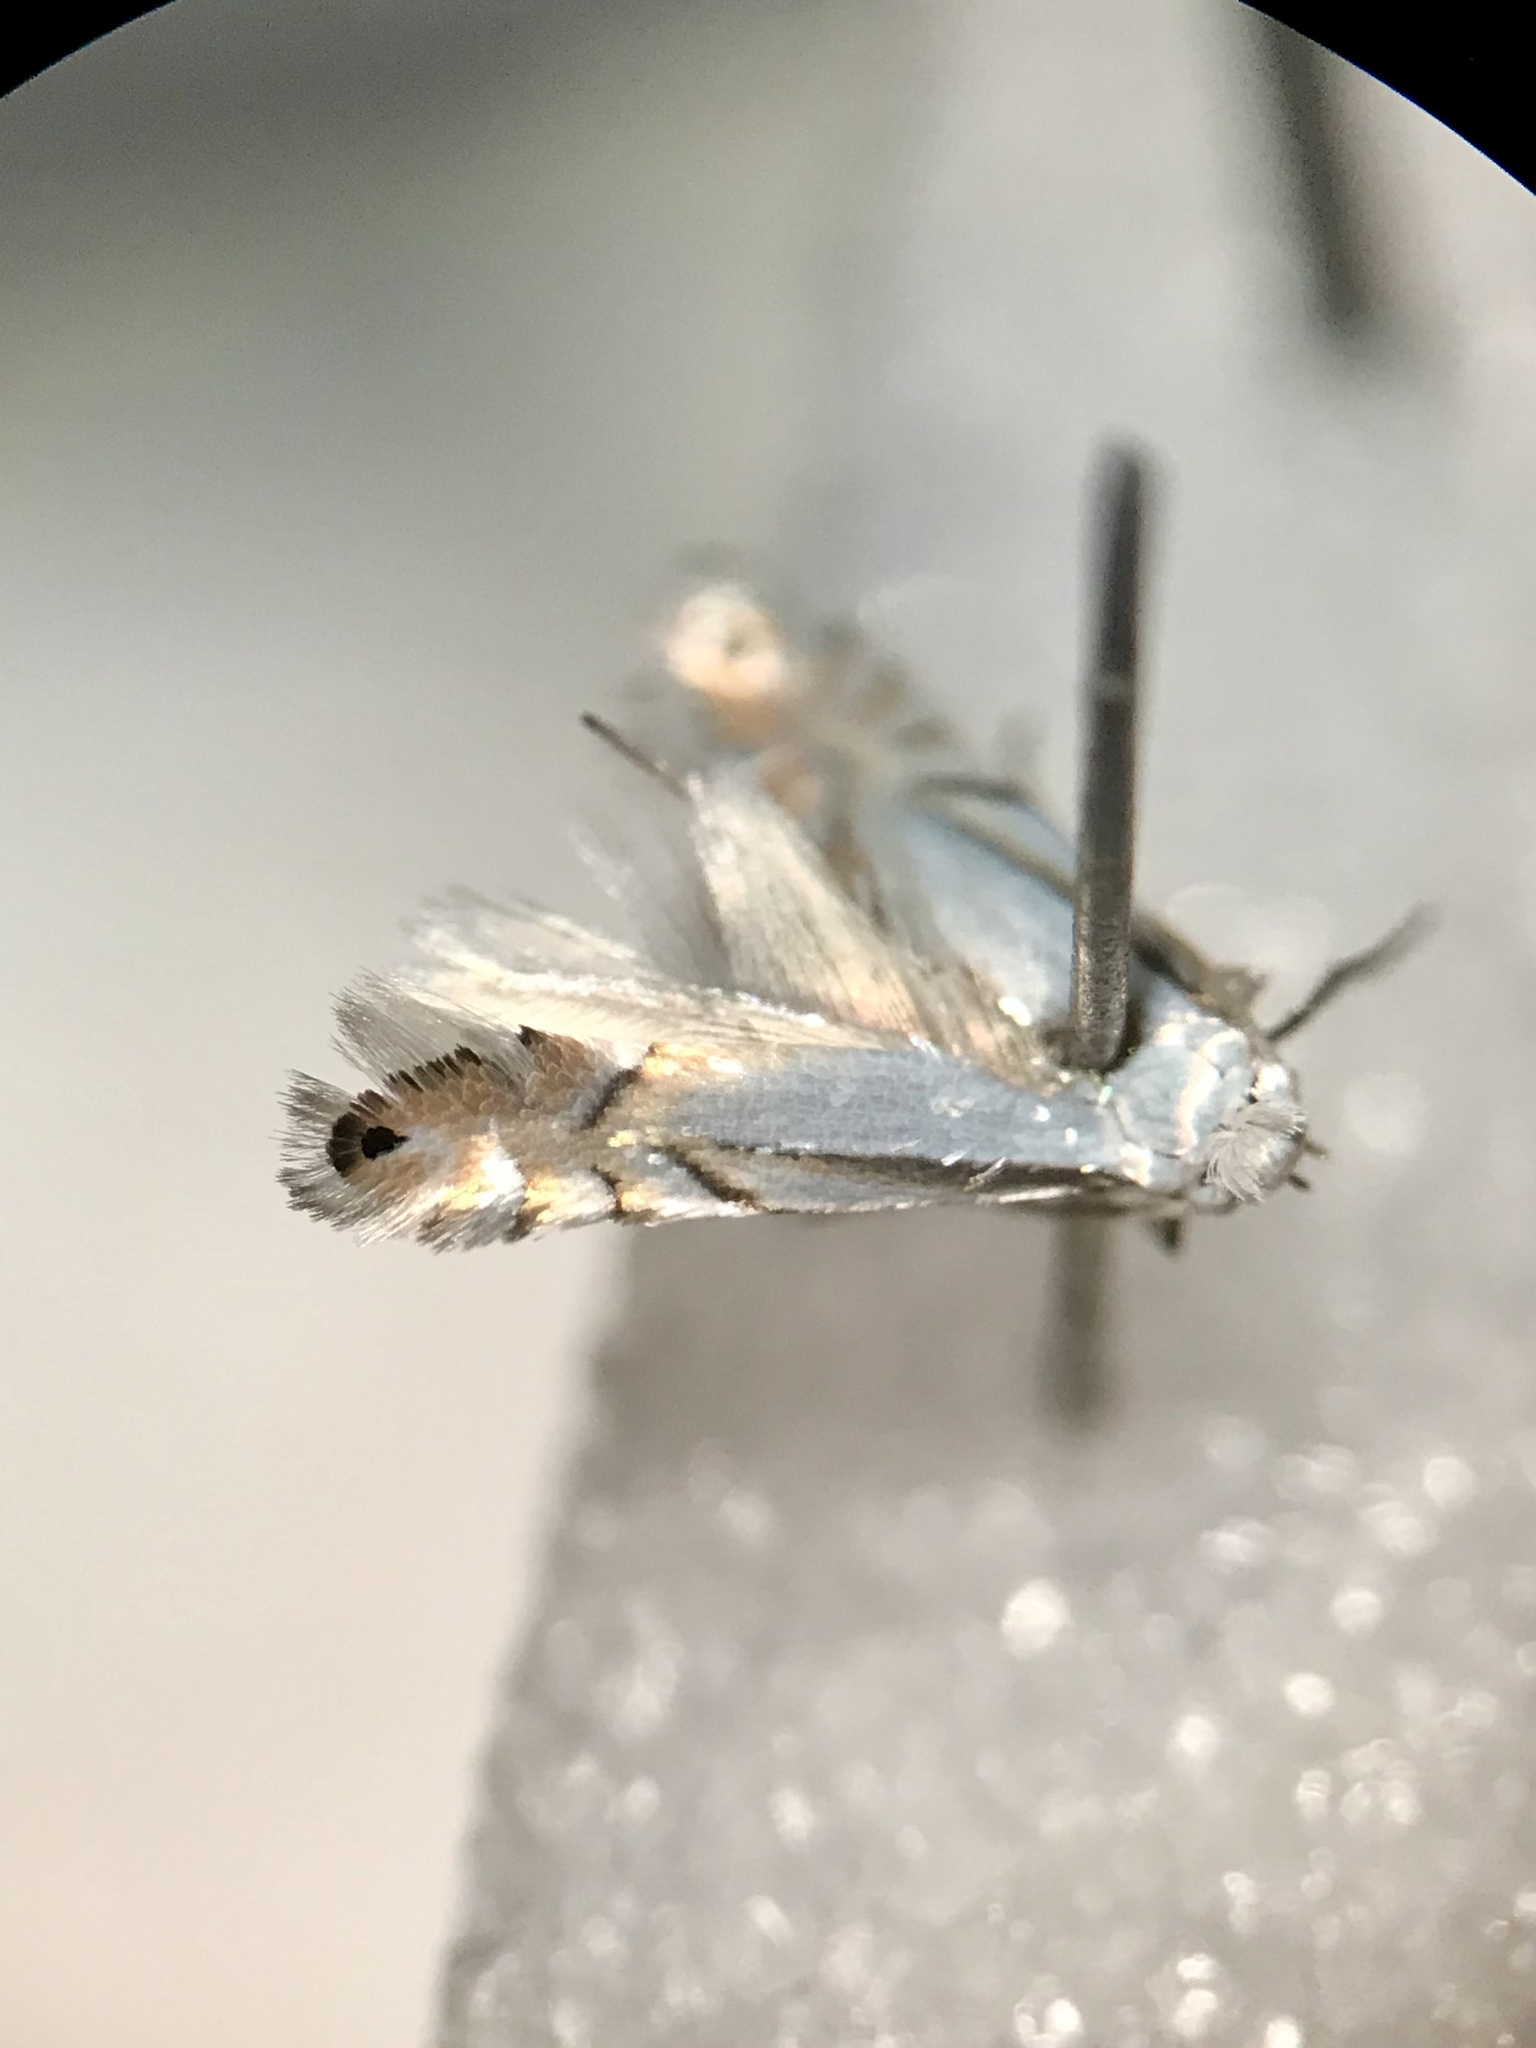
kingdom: Animalia
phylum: Arthropoda
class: Insecta
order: Lepidoptera
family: Gracillariidae
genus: Phyllonorycter
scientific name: Phyllonorycter argentifimbriella
